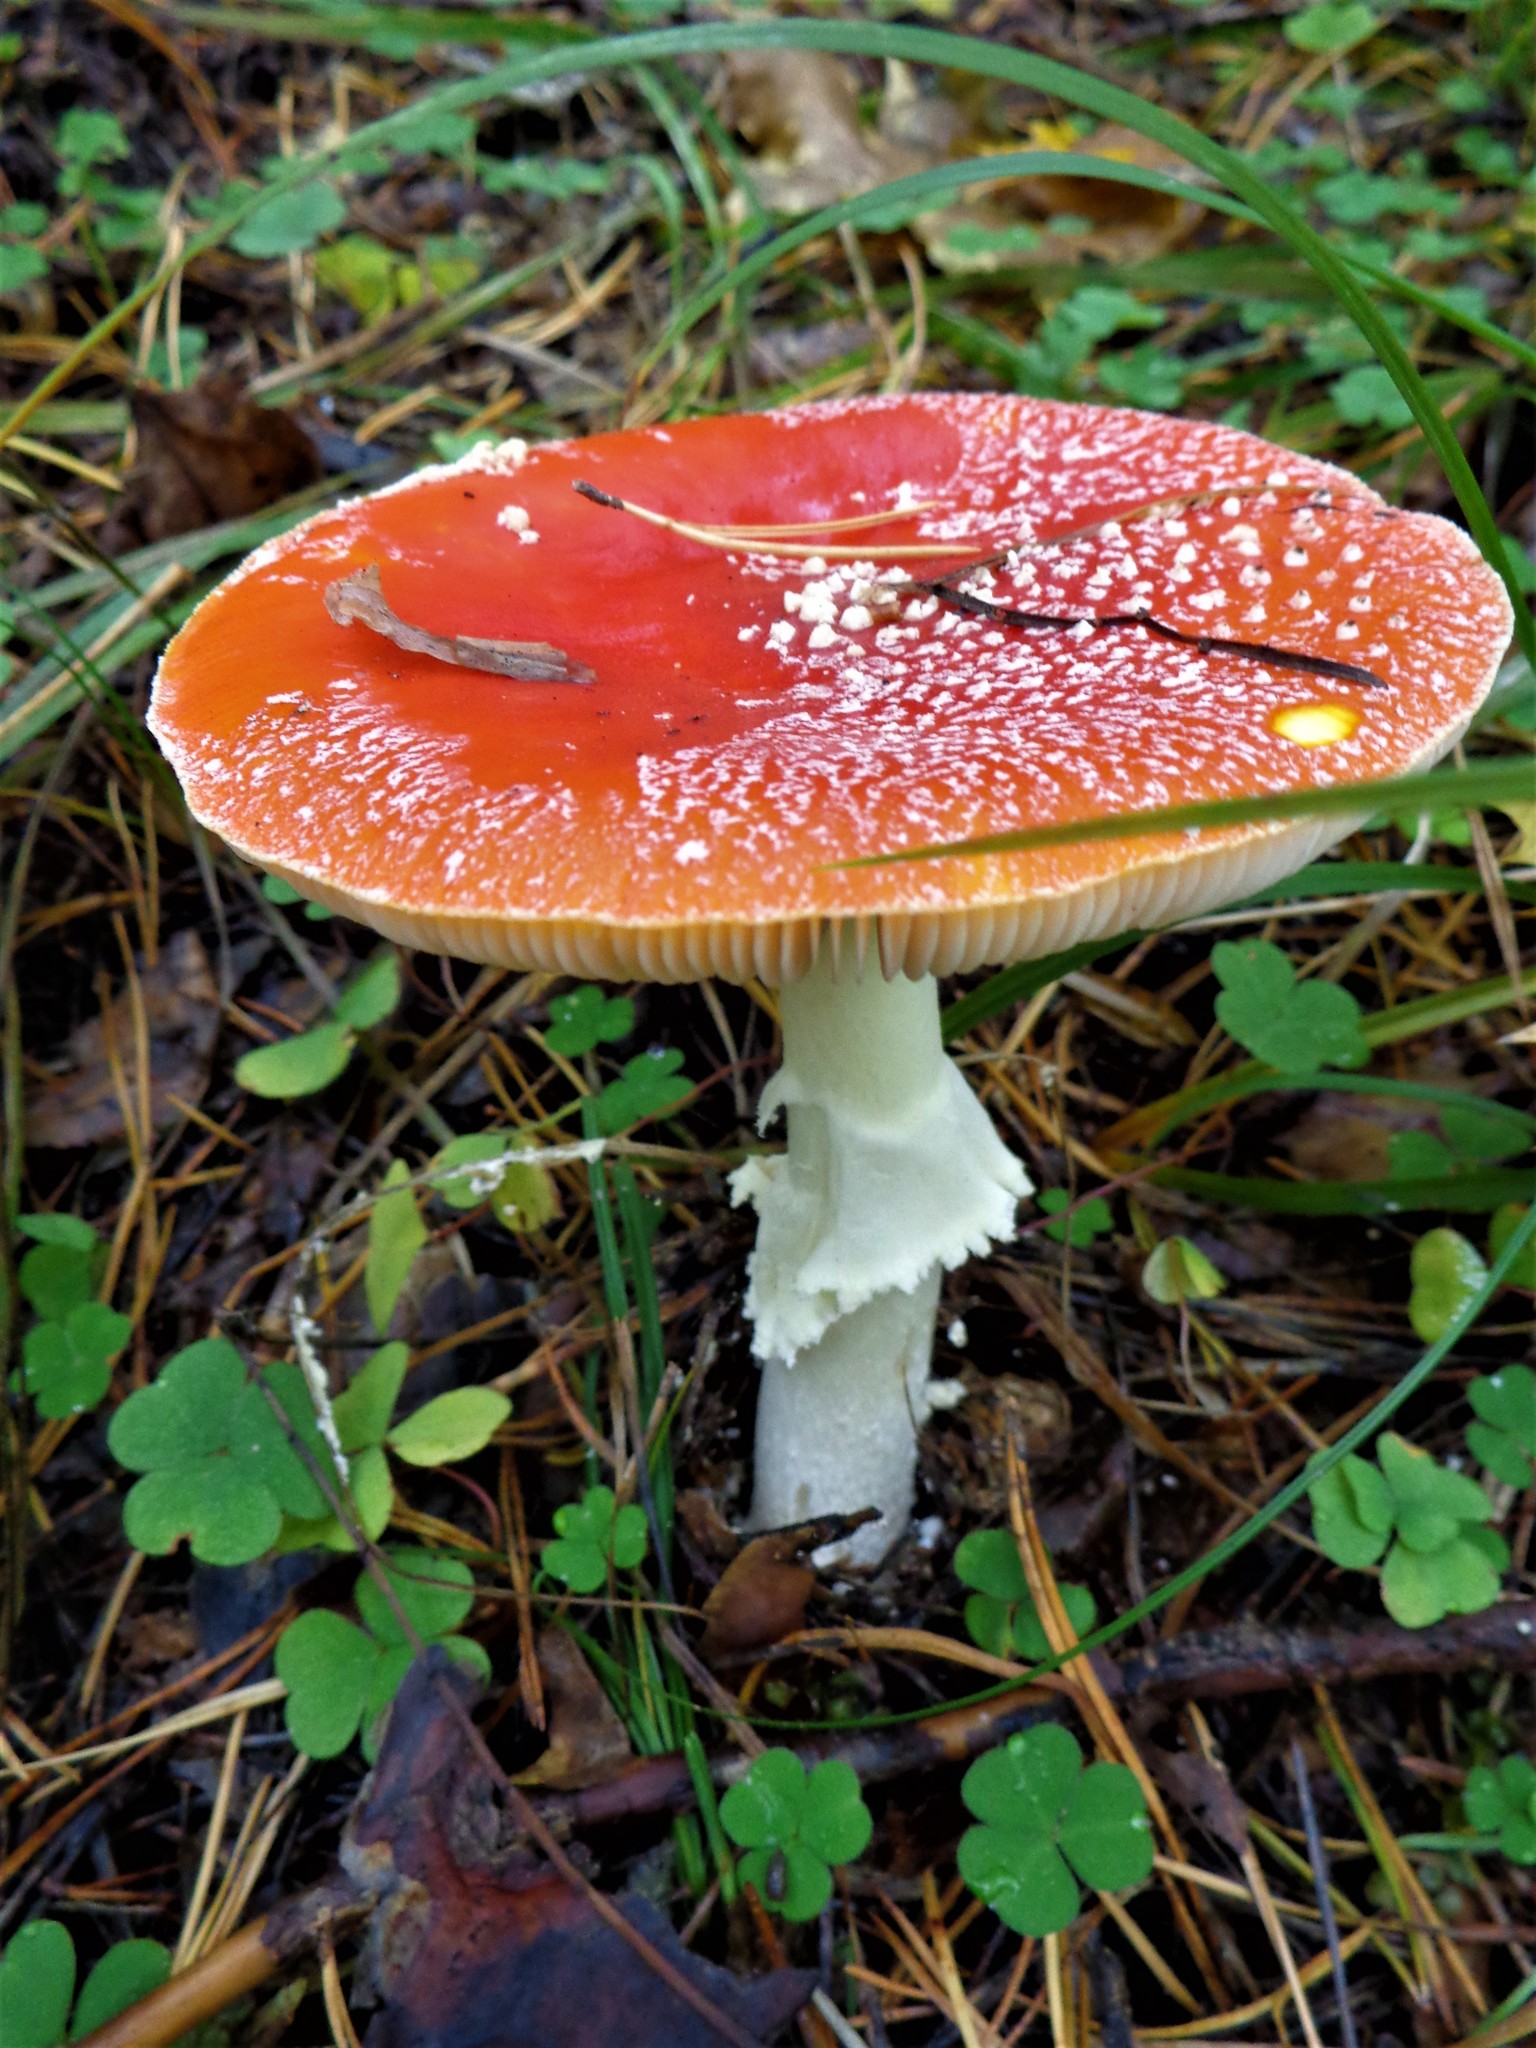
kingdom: Fungi
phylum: Basidiomycota
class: Agaricomycetes
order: Agaricales
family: Amanitaceae
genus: Amanita
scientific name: Amanita muscaria
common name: Fly agaric
